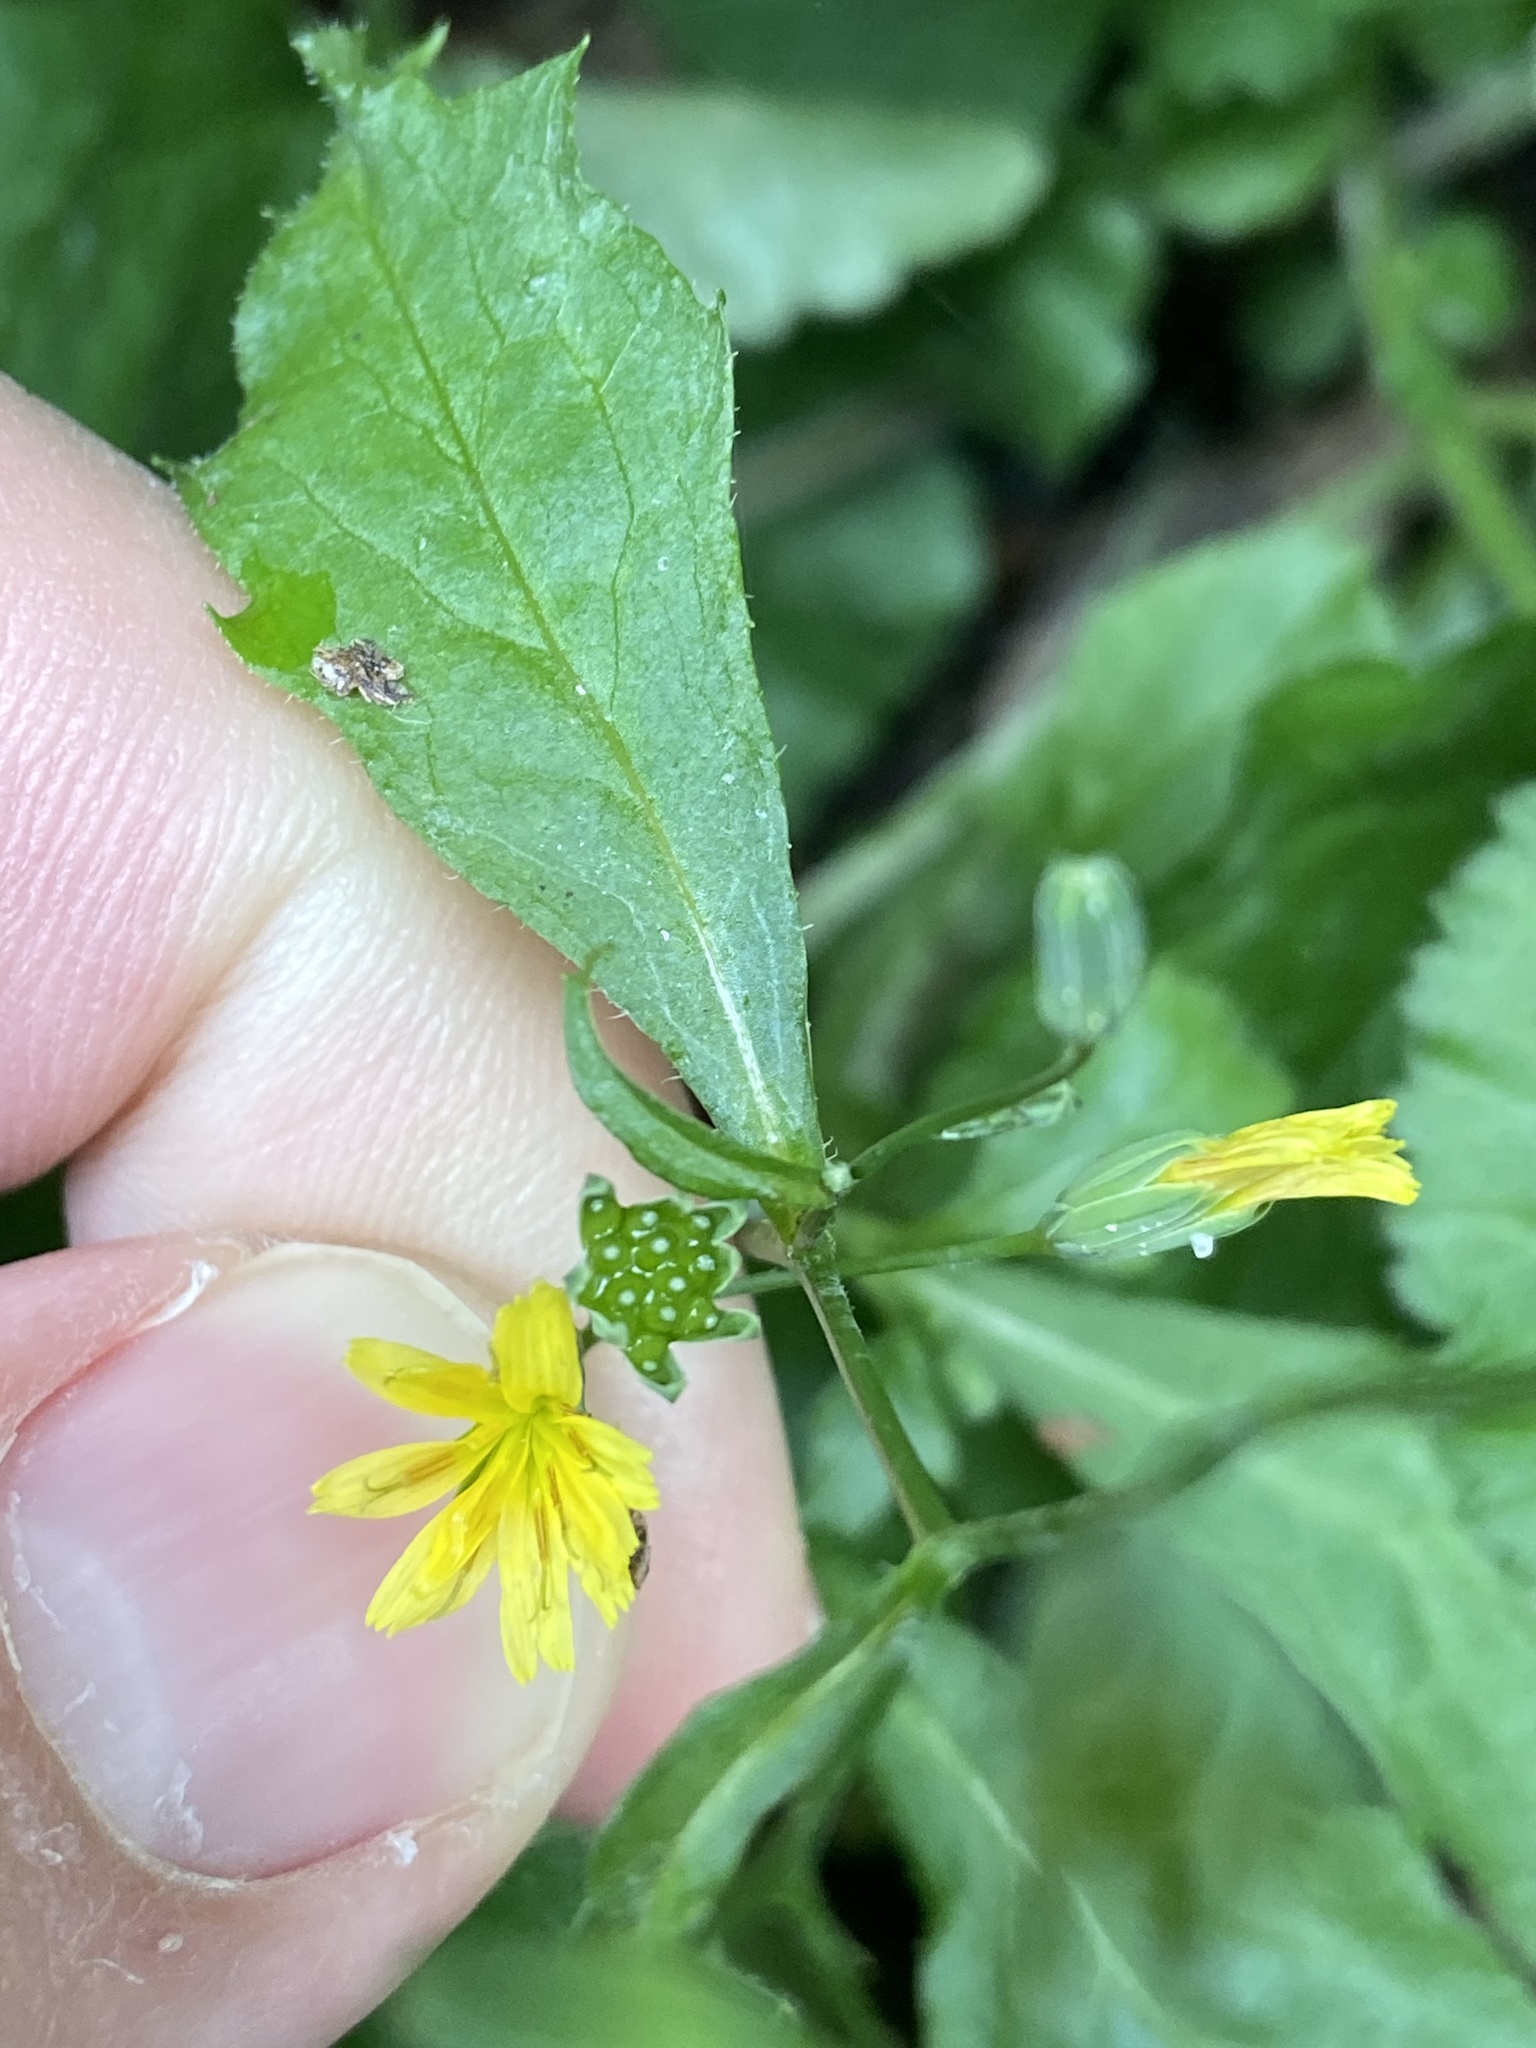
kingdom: Plantae
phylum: Tracheophyta
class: Magnoliopsida
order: Asterales
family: Asteraceae
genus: Lapsana
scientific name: Lapsana communis
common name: Nipplewort
